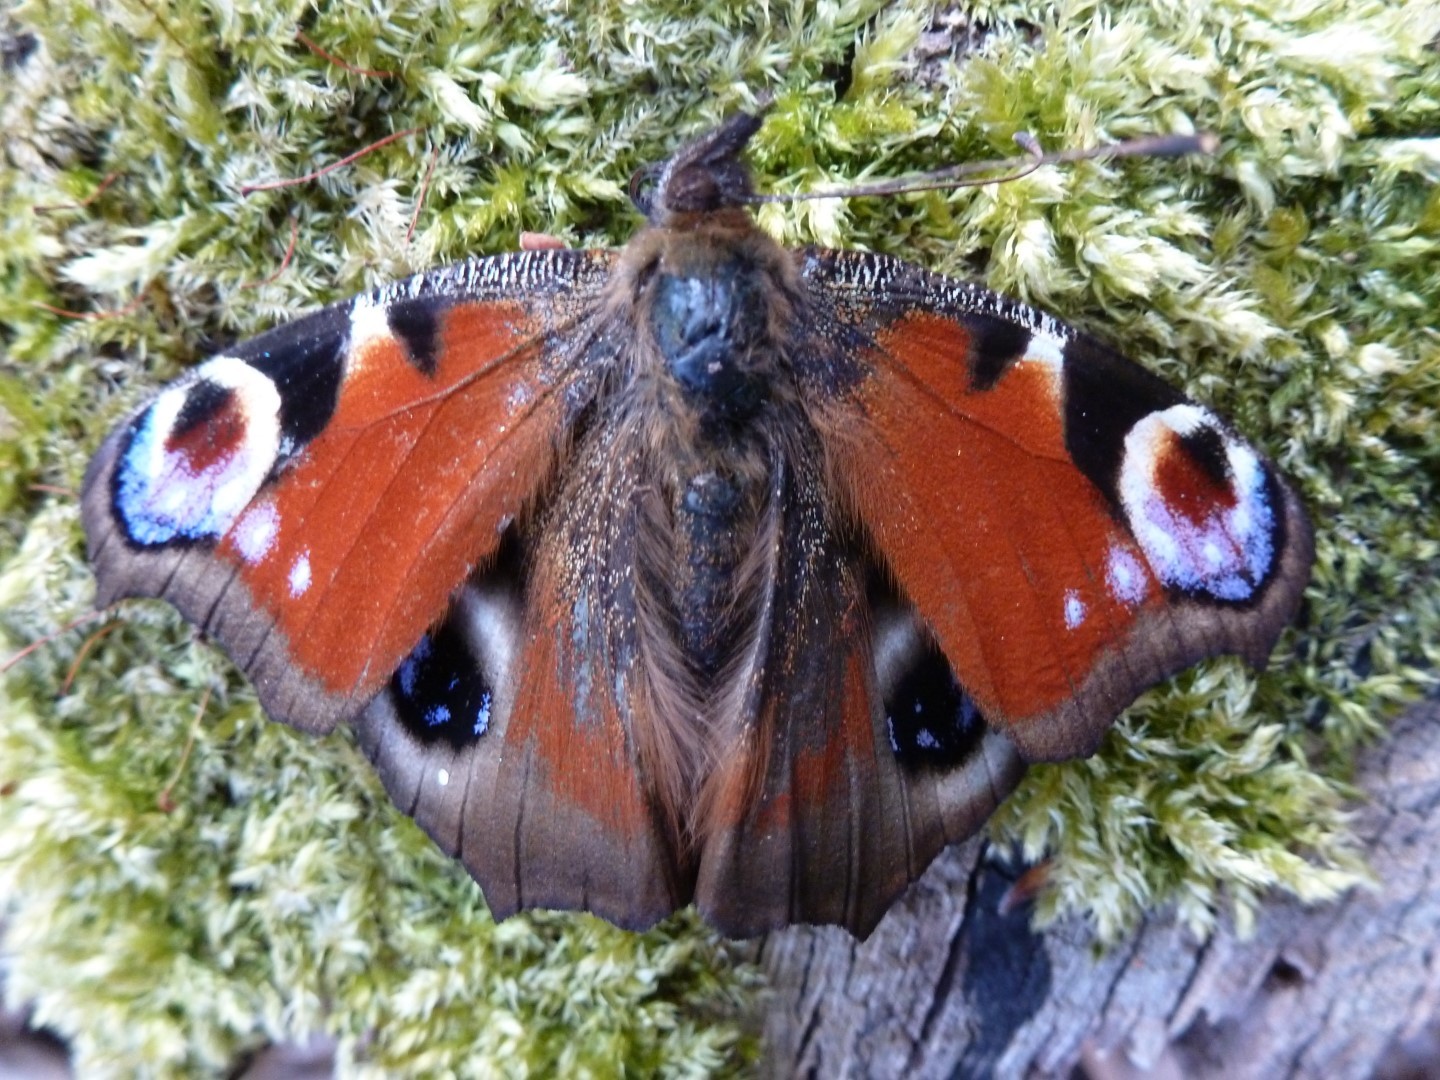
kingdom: Animalia
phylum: Arthropoda
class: Insecta
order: Lepidoptera
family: Nymphalidae
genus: Aglais
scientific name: Aglais io
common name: Peacock
